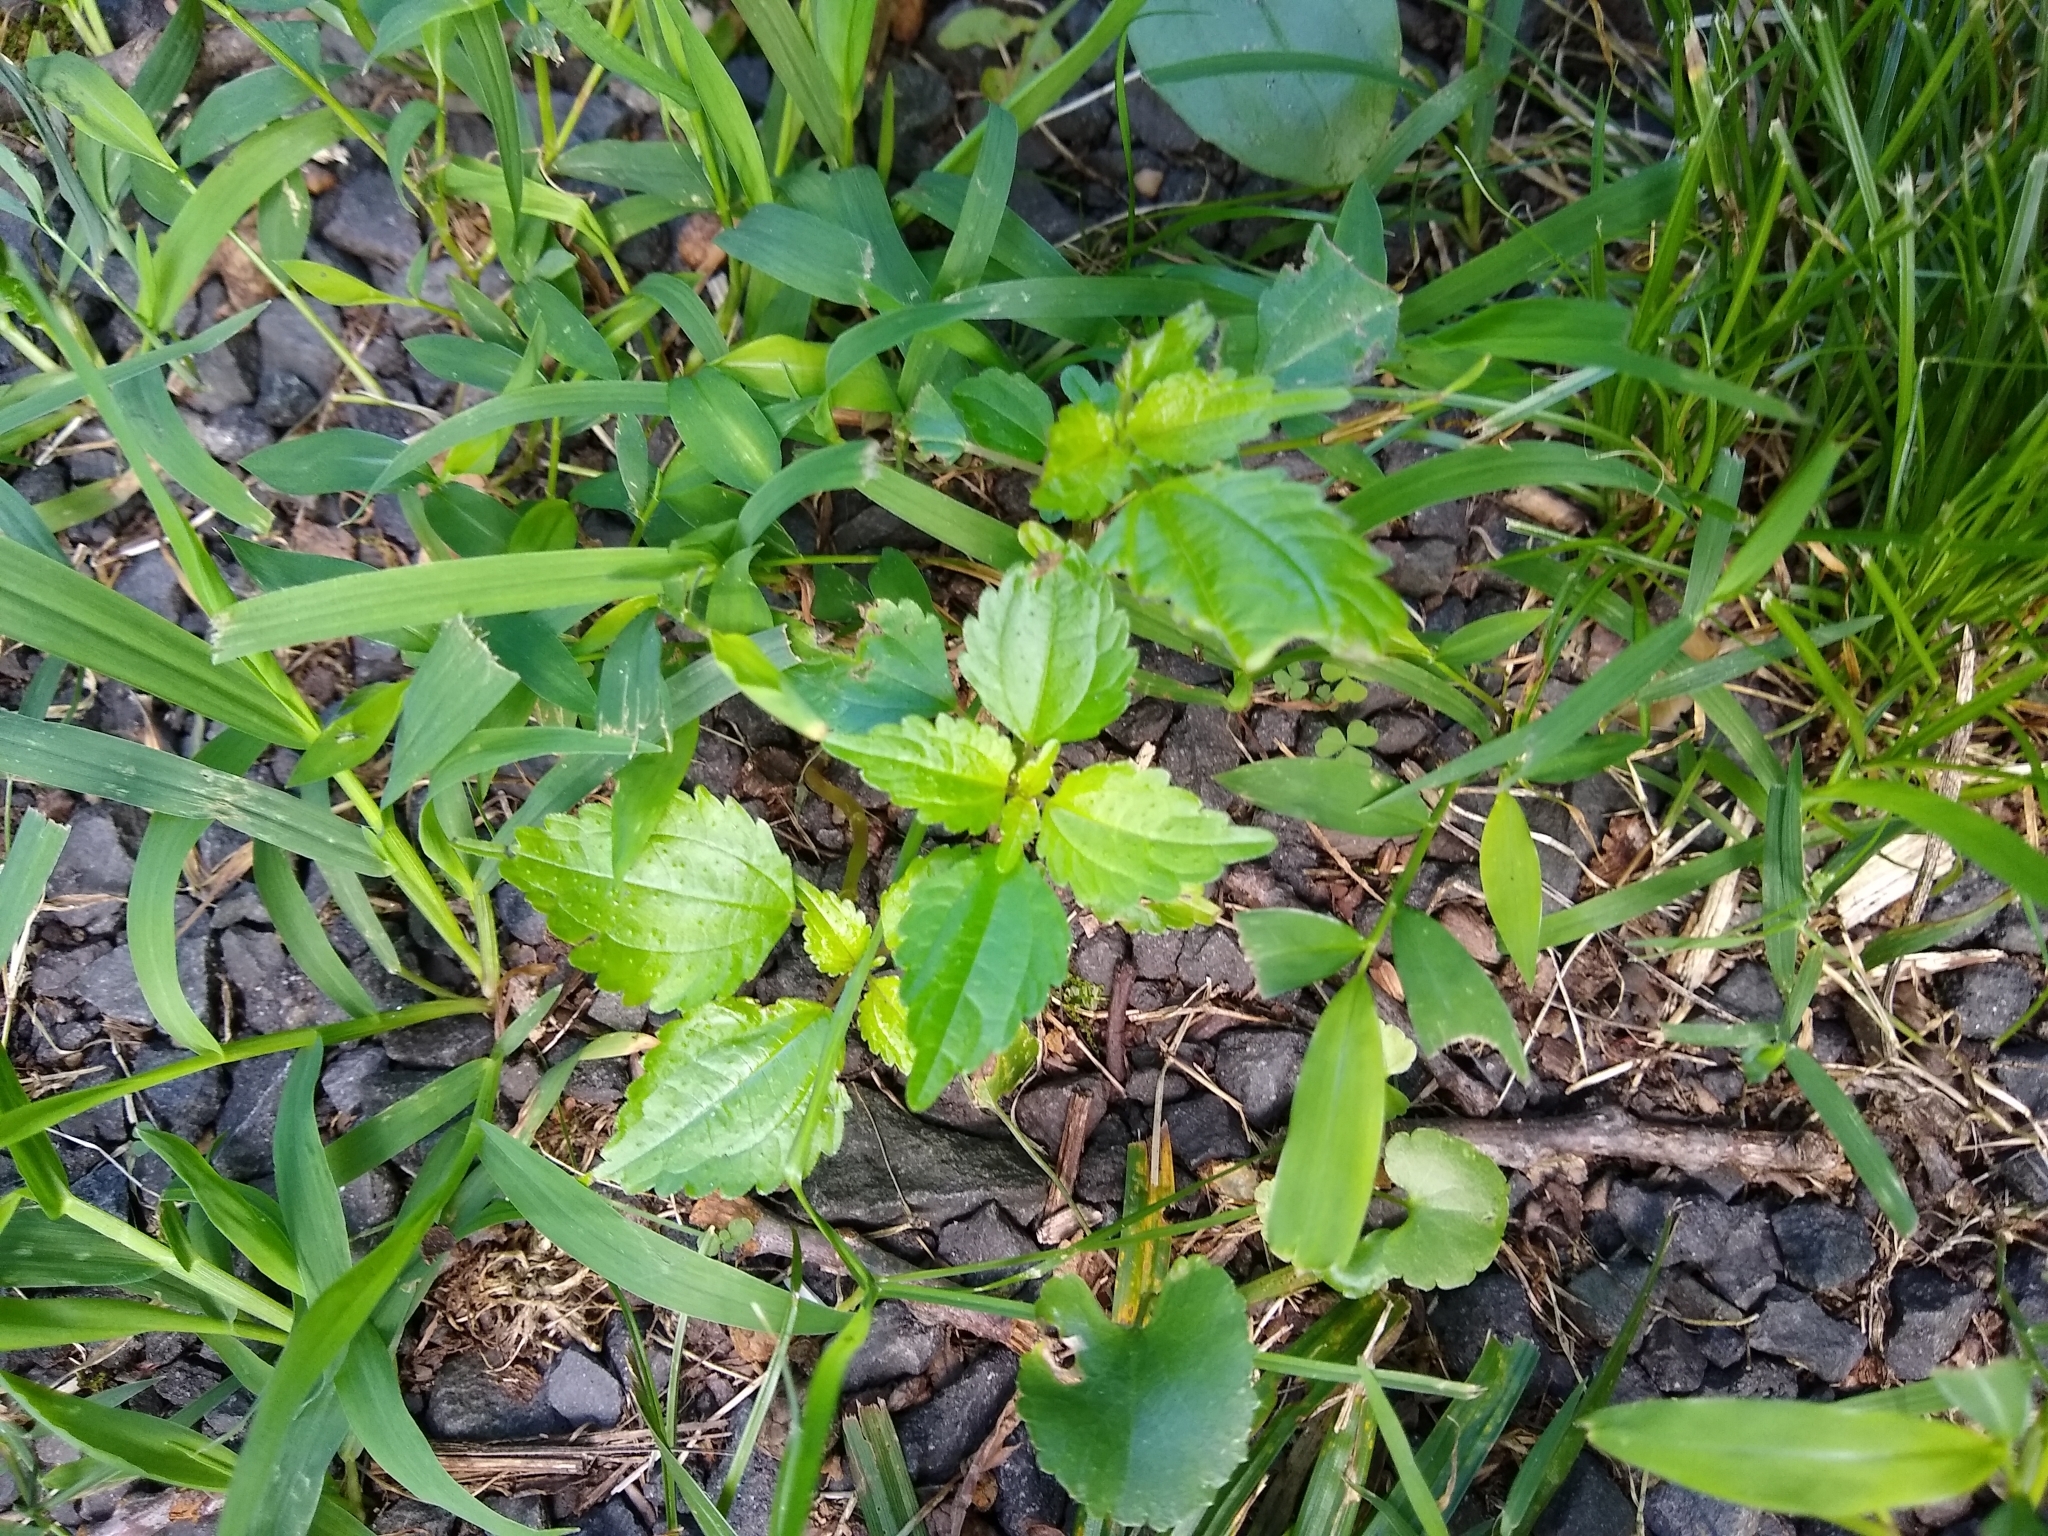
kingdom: Plantae
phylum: Tracheophyta
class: Magnoliopsida
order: Rosales
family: Urticaceae
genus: Pilea
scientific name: Pilea pumila
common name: Clearweed
